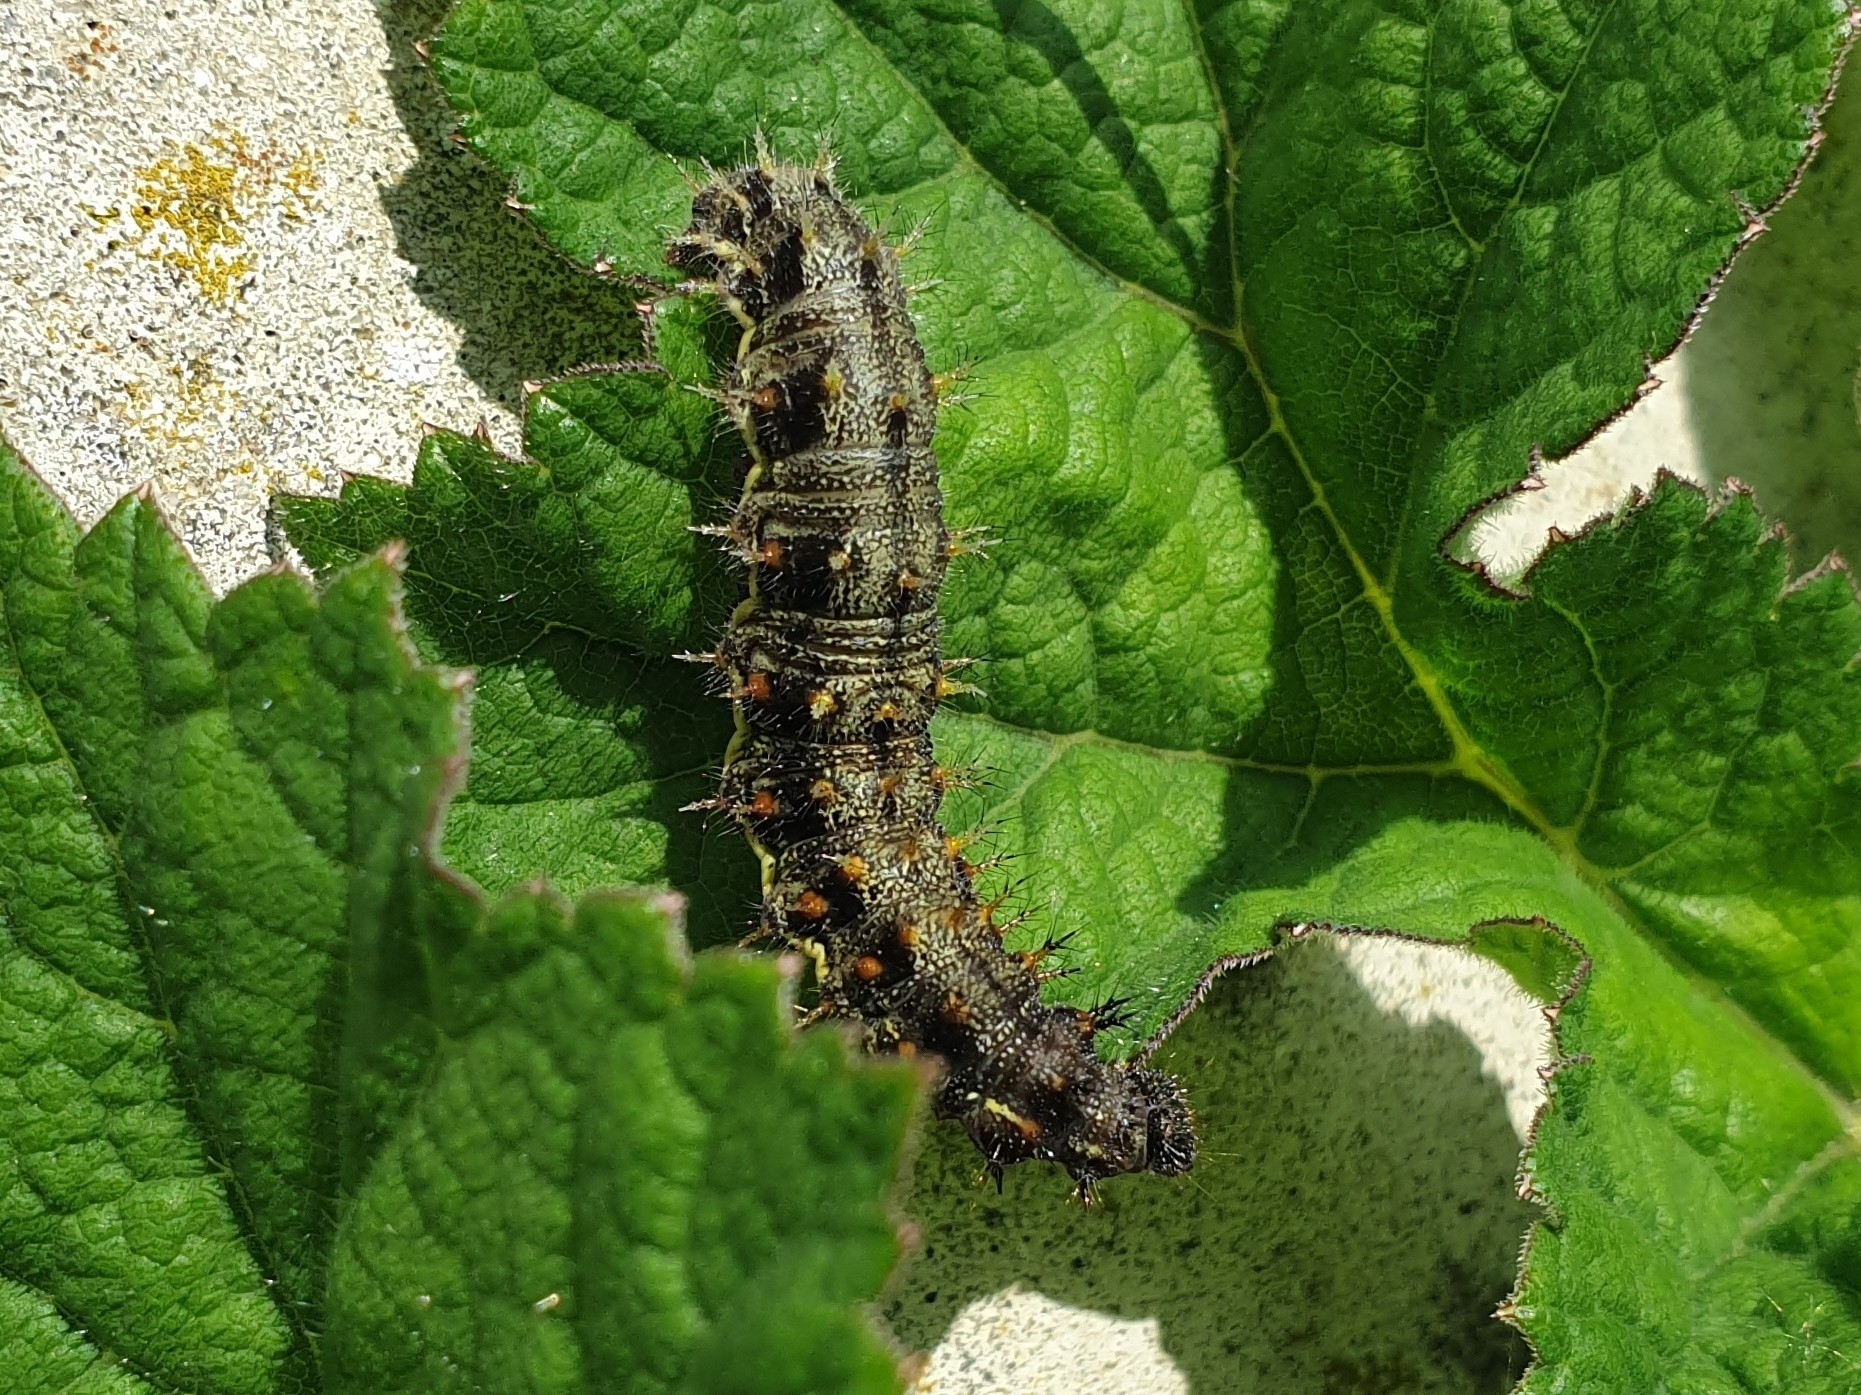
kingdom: Animalia
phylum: Arthropoda
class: Insecta
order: Lepidoptera
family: Nymphalidae
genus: Vanessa
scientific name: Vanessa atalanta
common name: Red admiral
